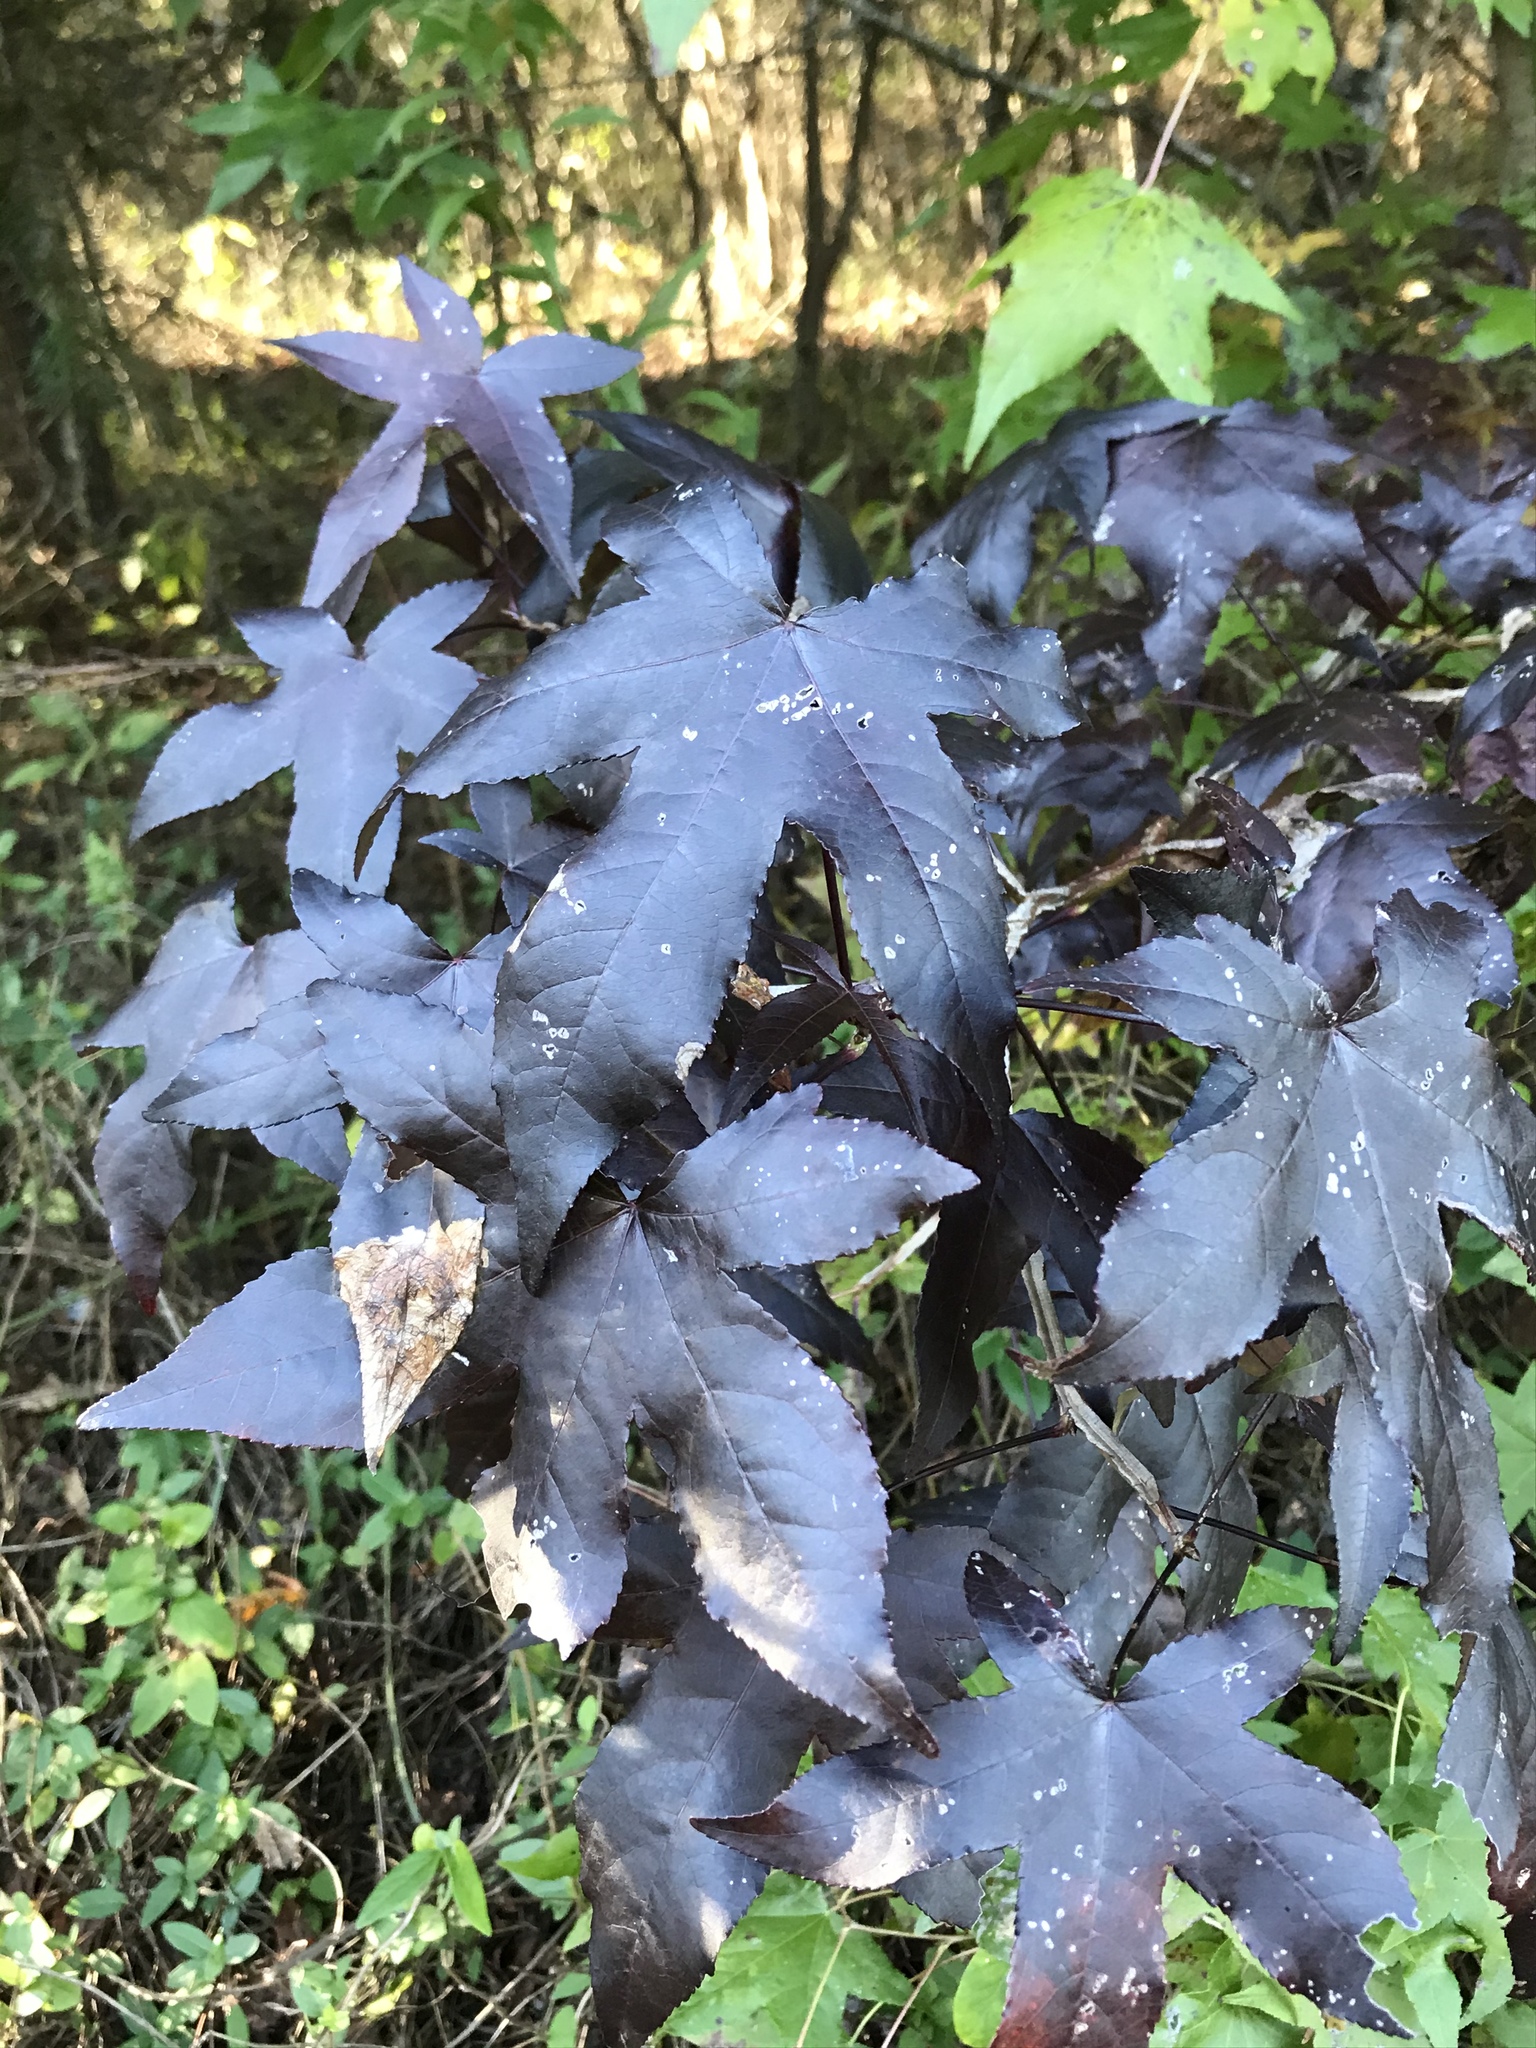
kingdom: Plantae
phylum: Tracheophyta
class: Magnoliopsida
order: Saxifragales
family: Altingiaceae
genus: Liquidambar
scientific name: Liquidambar styraciflua
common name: Sweet gum
